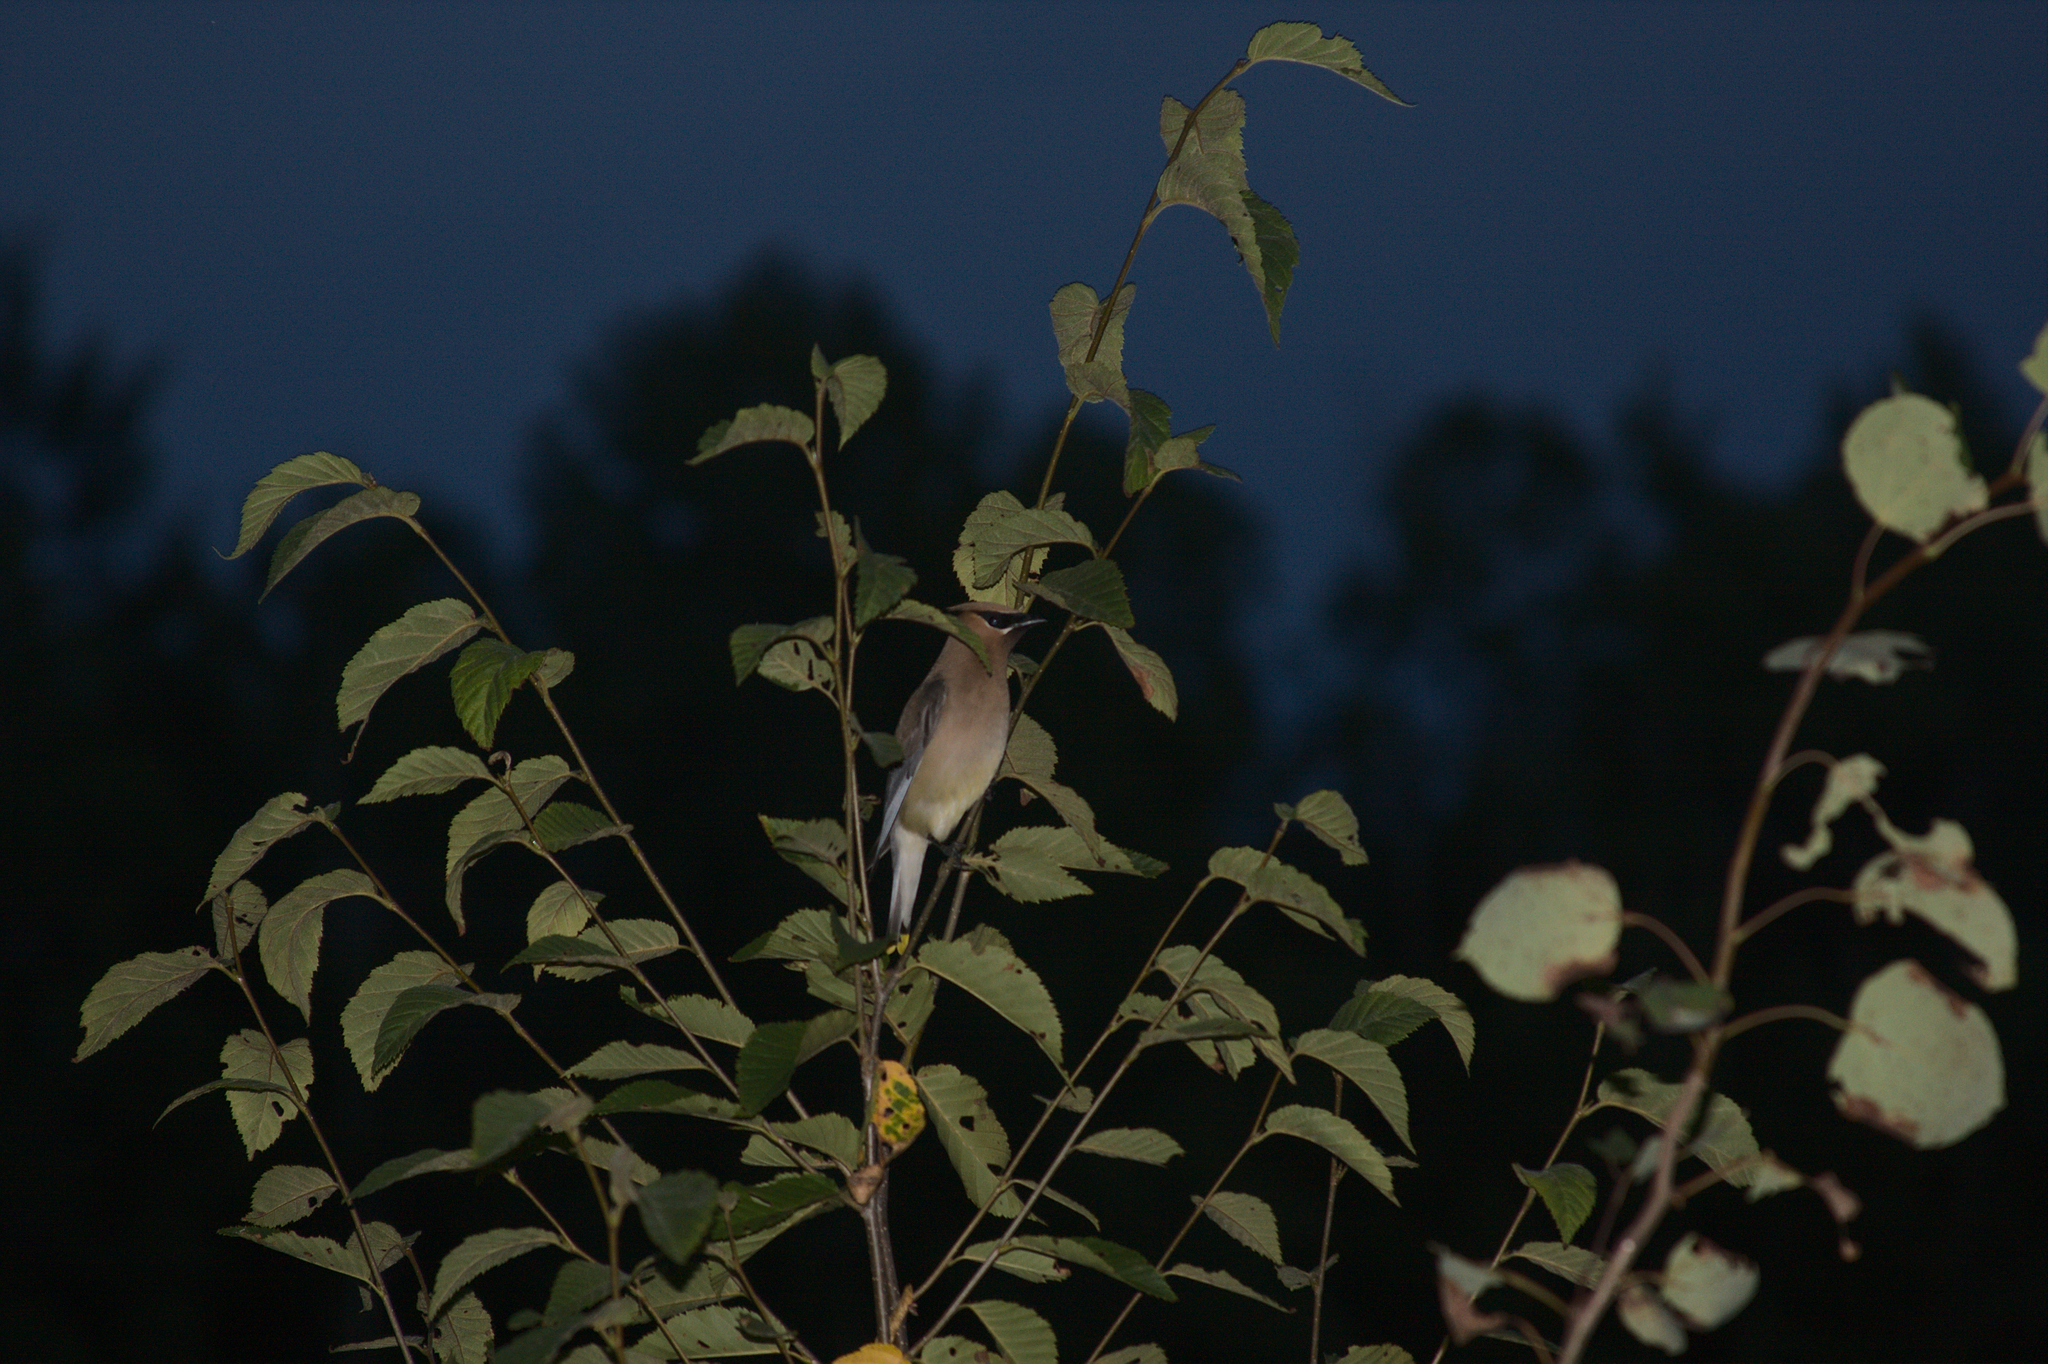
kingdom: Animalia
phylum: Chordata
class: Aves
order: Passeriformes
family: Bombycillidae
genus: Bombycilla
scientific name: Bombycilla cedrorum
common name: Cedar waxwing
